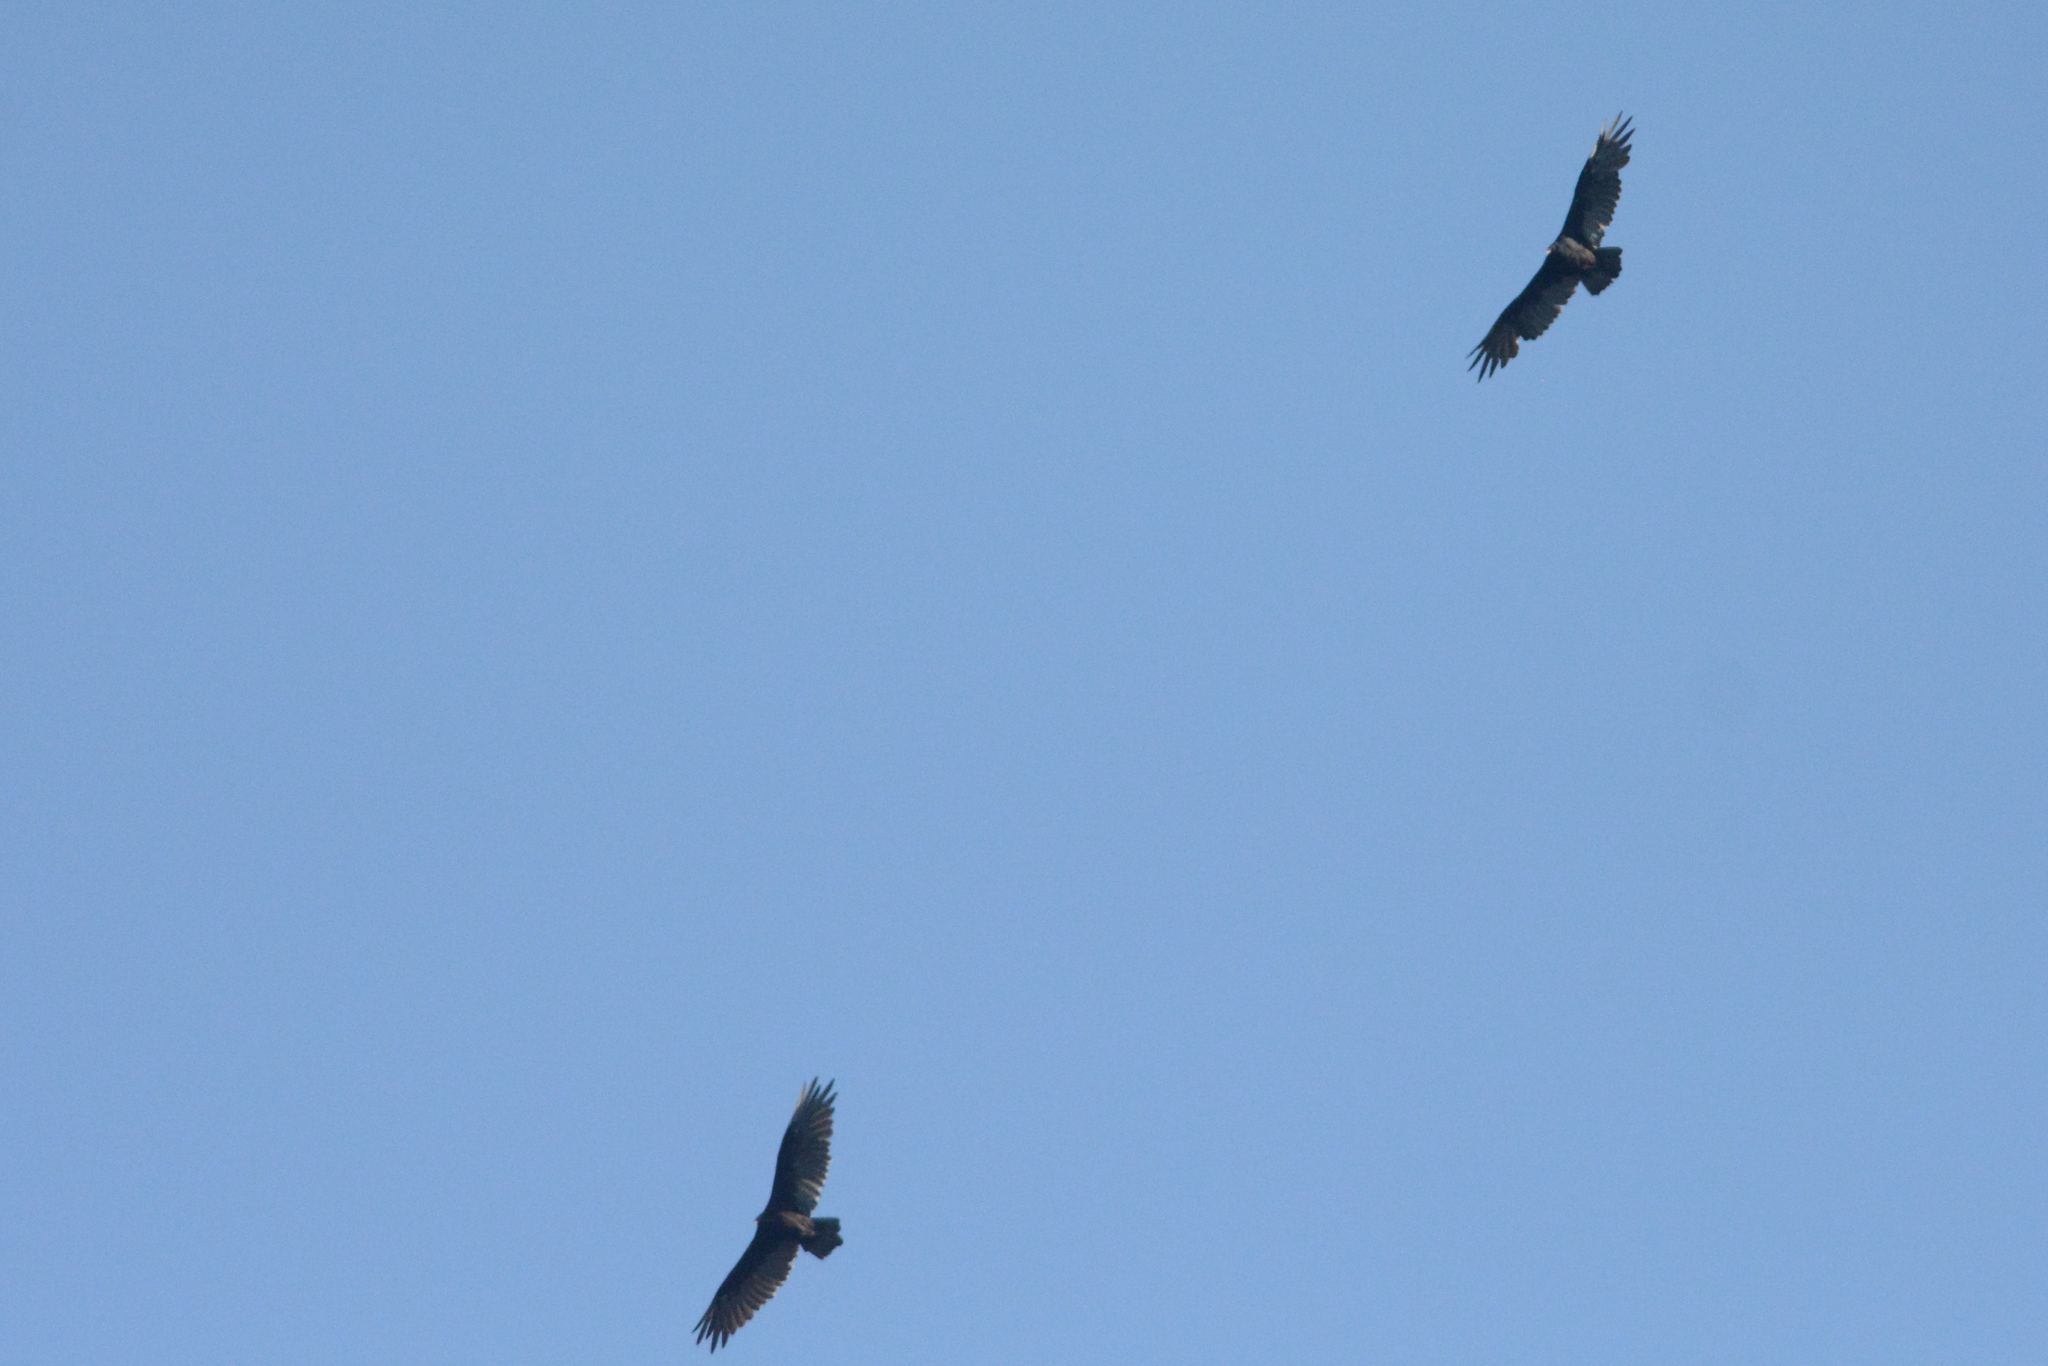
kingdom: Animalia
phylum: Chordata
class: Aves
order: Accipitriformes
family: Cathartidae
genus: Cathartes
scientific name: Cathartes aura
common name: Turkey vulture
